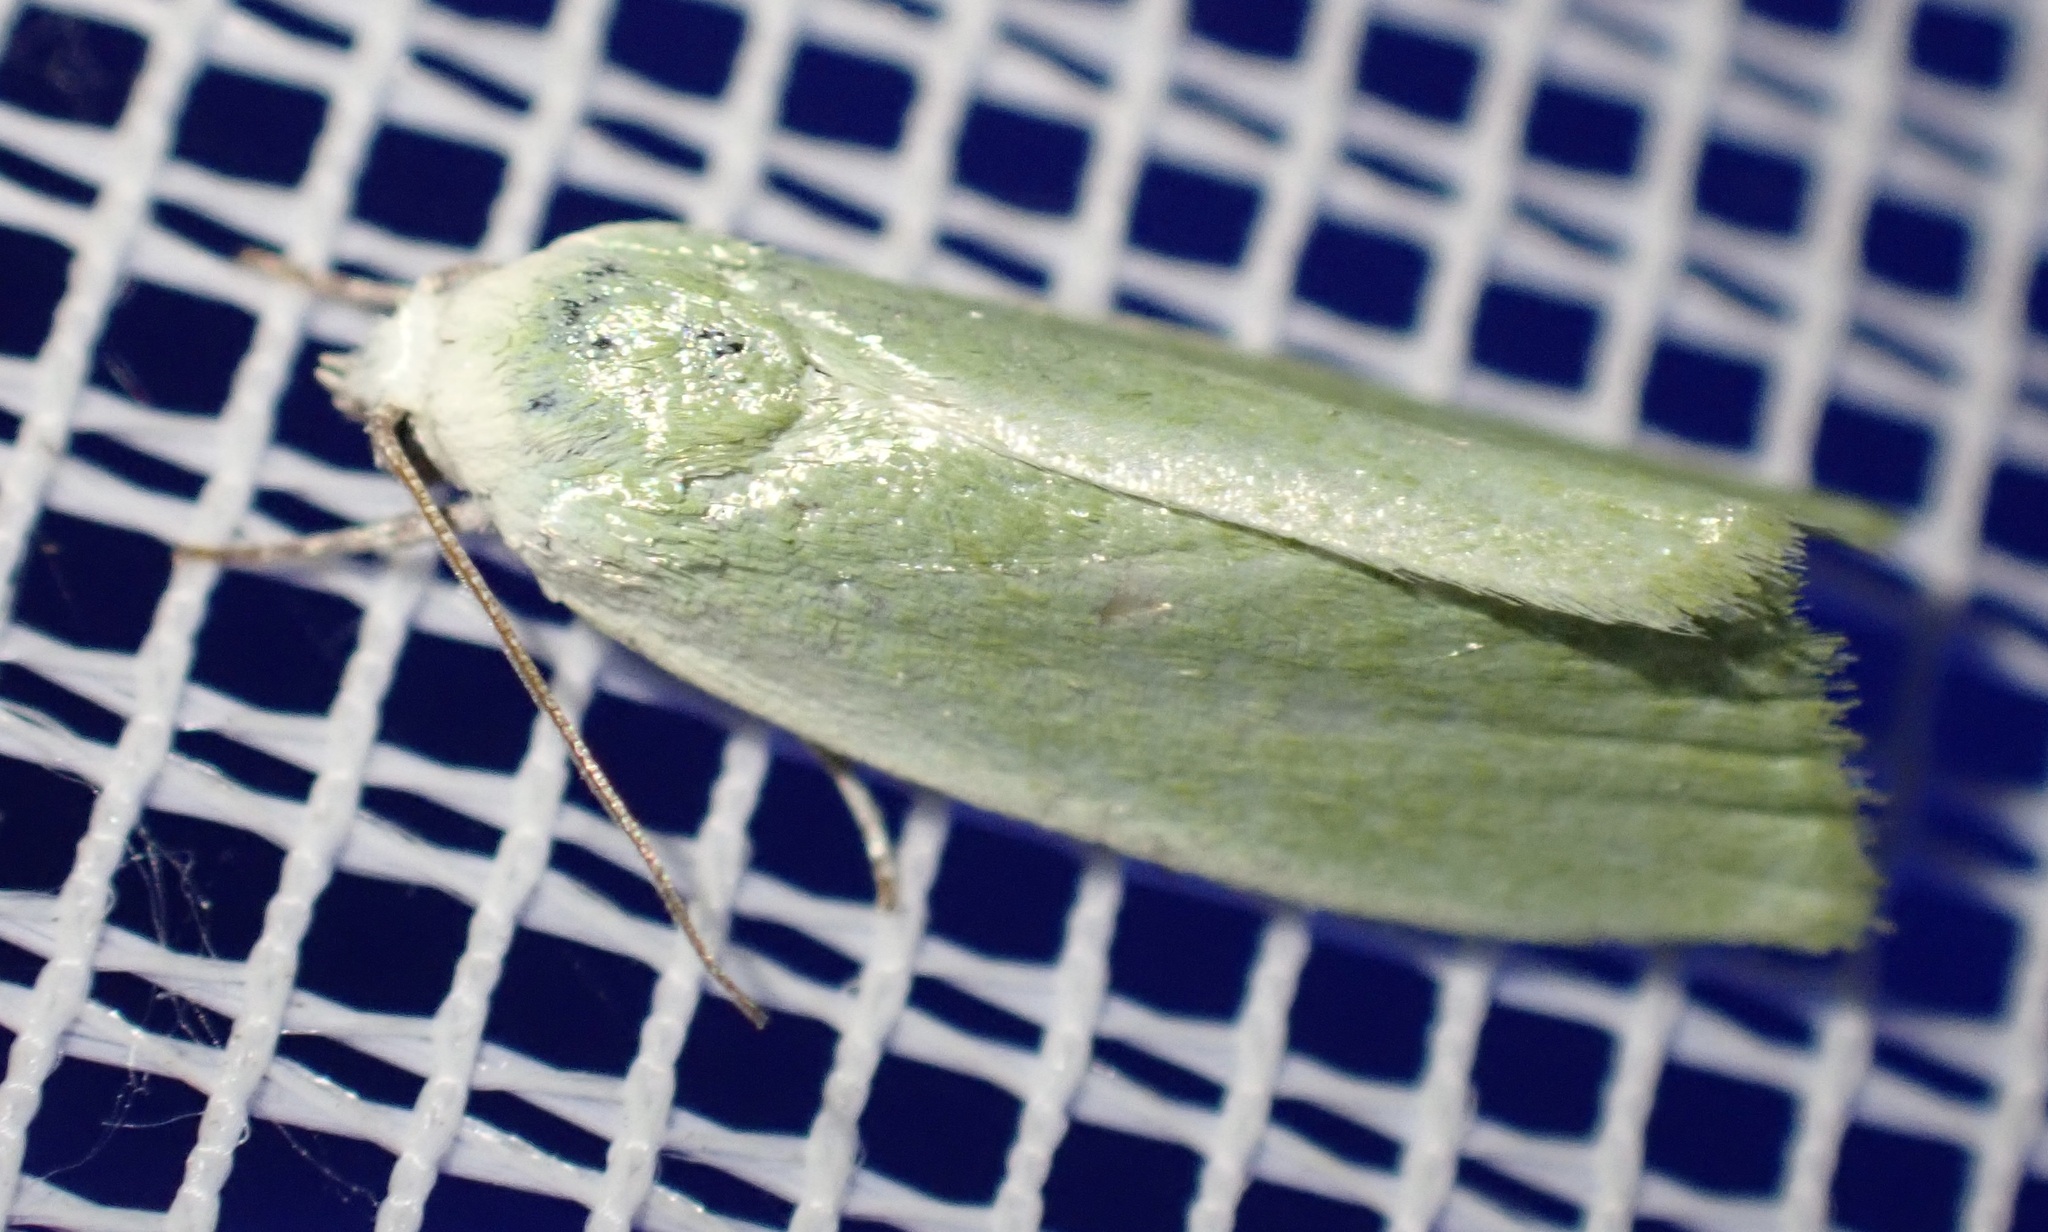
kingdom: Animalia
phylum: Arthropoda
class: Insecta
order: Lepidoptera
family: Nolidae
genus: Earias
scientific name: Earias clorana
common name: Cream-bordered green pea
